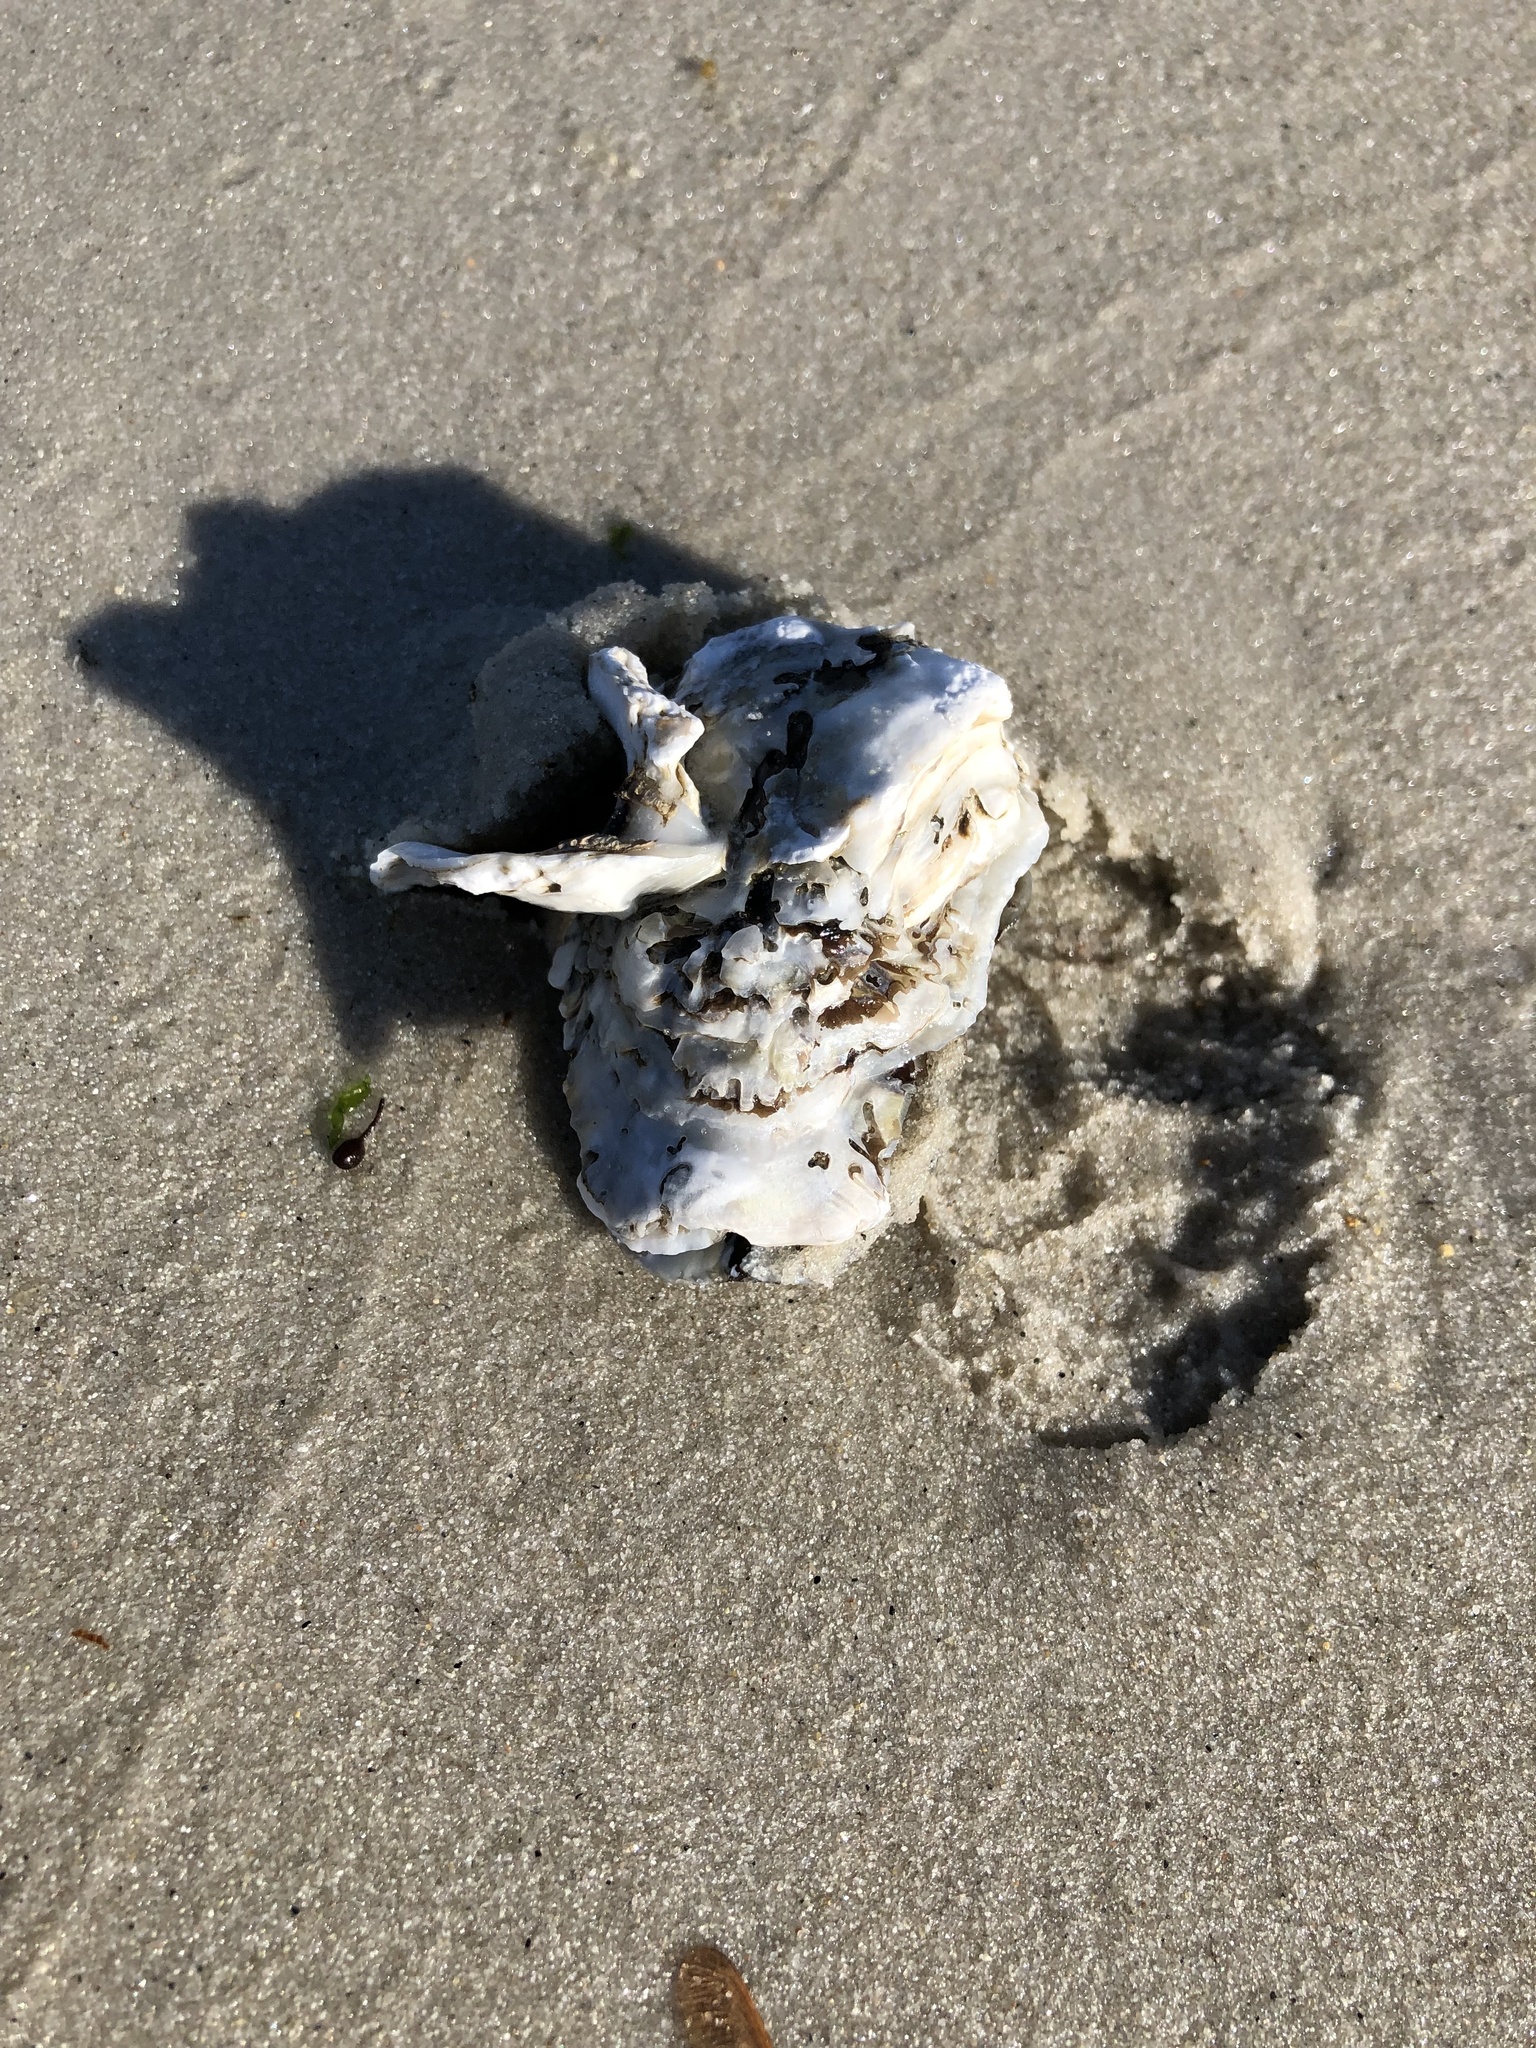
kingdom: Animalia
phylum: Mollusca
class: Bivalvia
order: Ostreida
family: Ostreidae
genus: Crassostrea
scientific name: Crassostrea virginica
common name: American oyster
